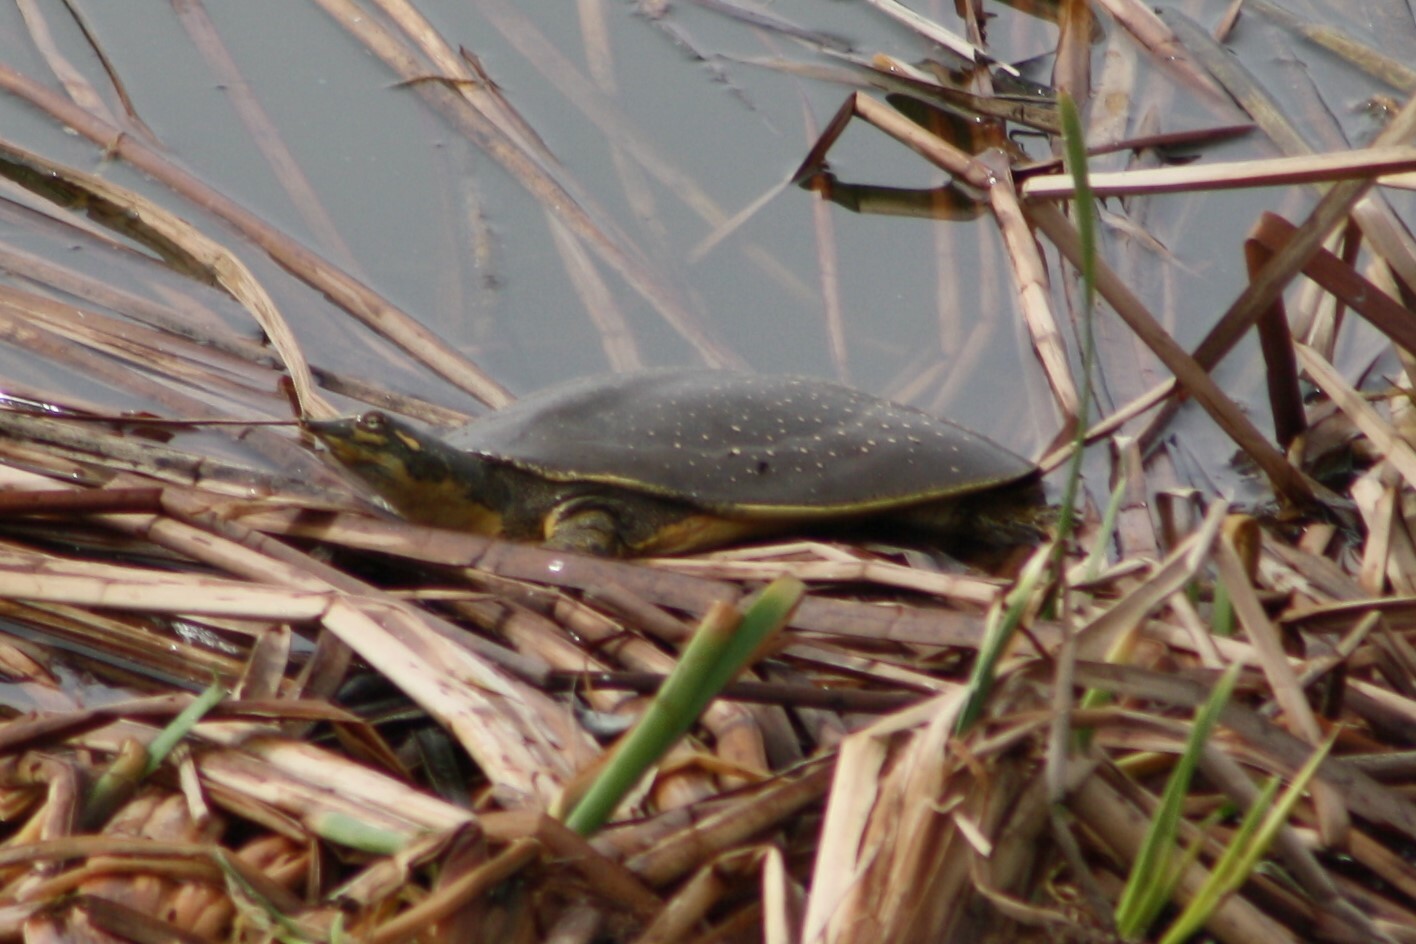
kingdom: Animalia
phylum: Chordata
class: Testudines
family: Trionychidae
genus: Apalone
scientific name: Apalone spinifera
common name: Spiny softshell turtle
